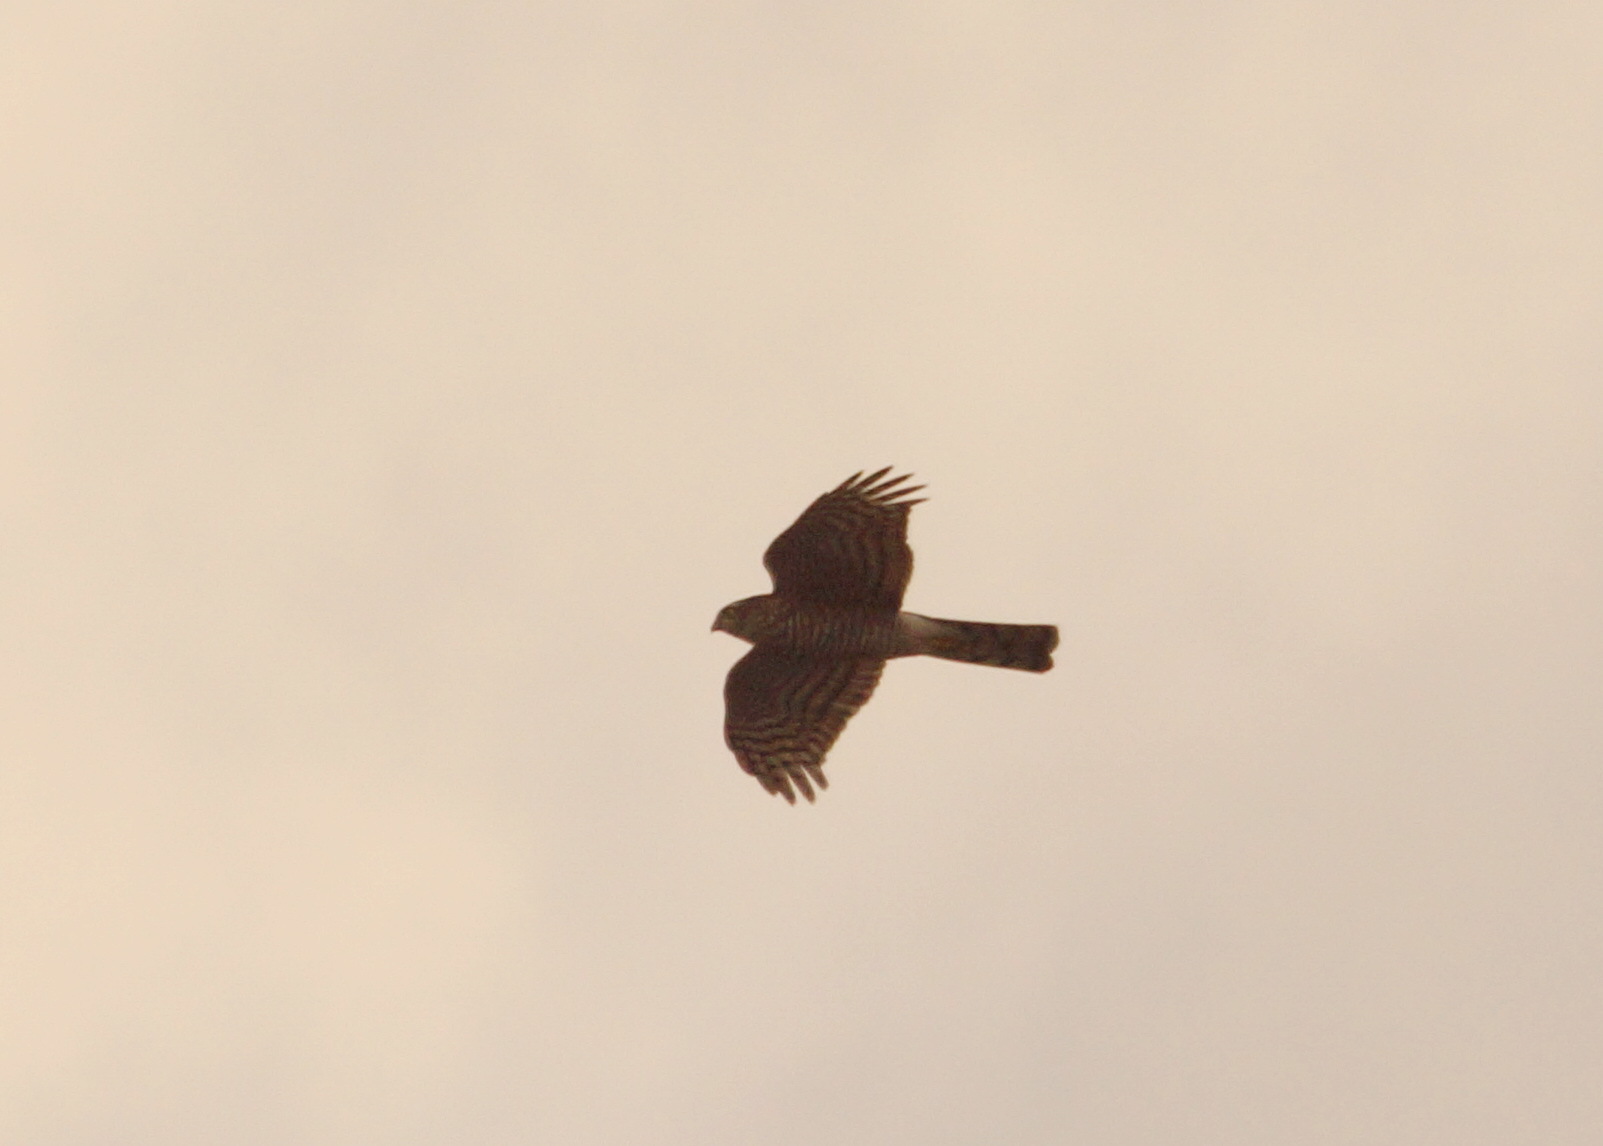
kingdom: Animalia
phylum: Chordata
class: Aves
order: Accipitriformes
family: Accipitridae
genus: Accipiter
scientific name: Accipiter nisus
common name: Eurasian sparrowhawk
